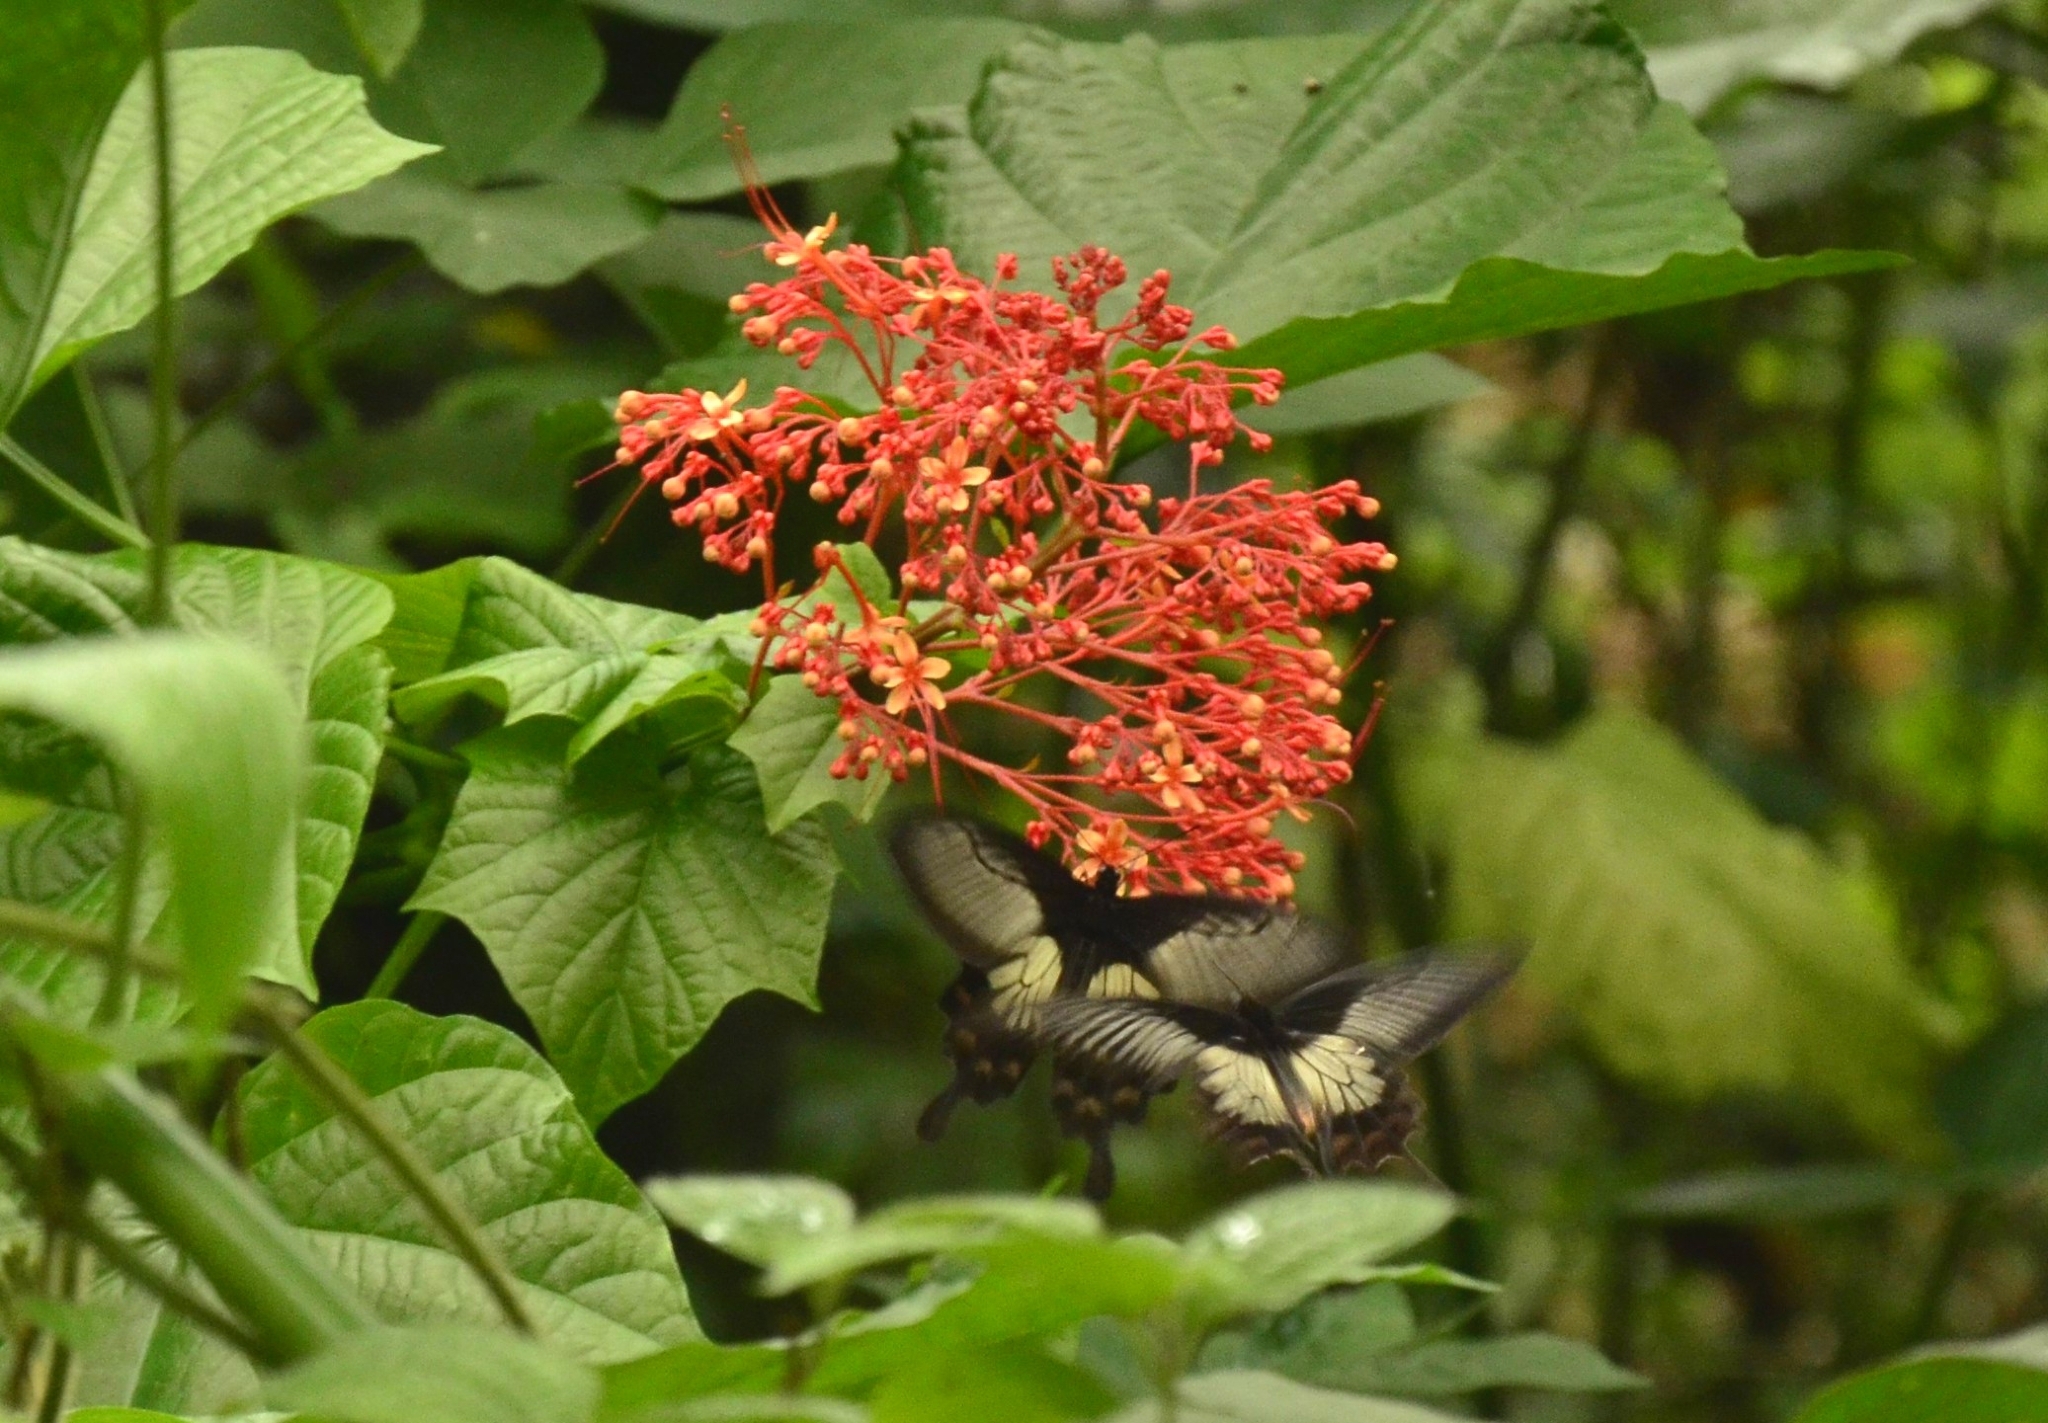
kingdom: Animalia
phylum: Arthropoda
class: Insecta
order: Lepidoptera
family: Papilionidae
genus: Pachliopta
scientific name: Pachliopta pandiyana
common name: Malabar rose
